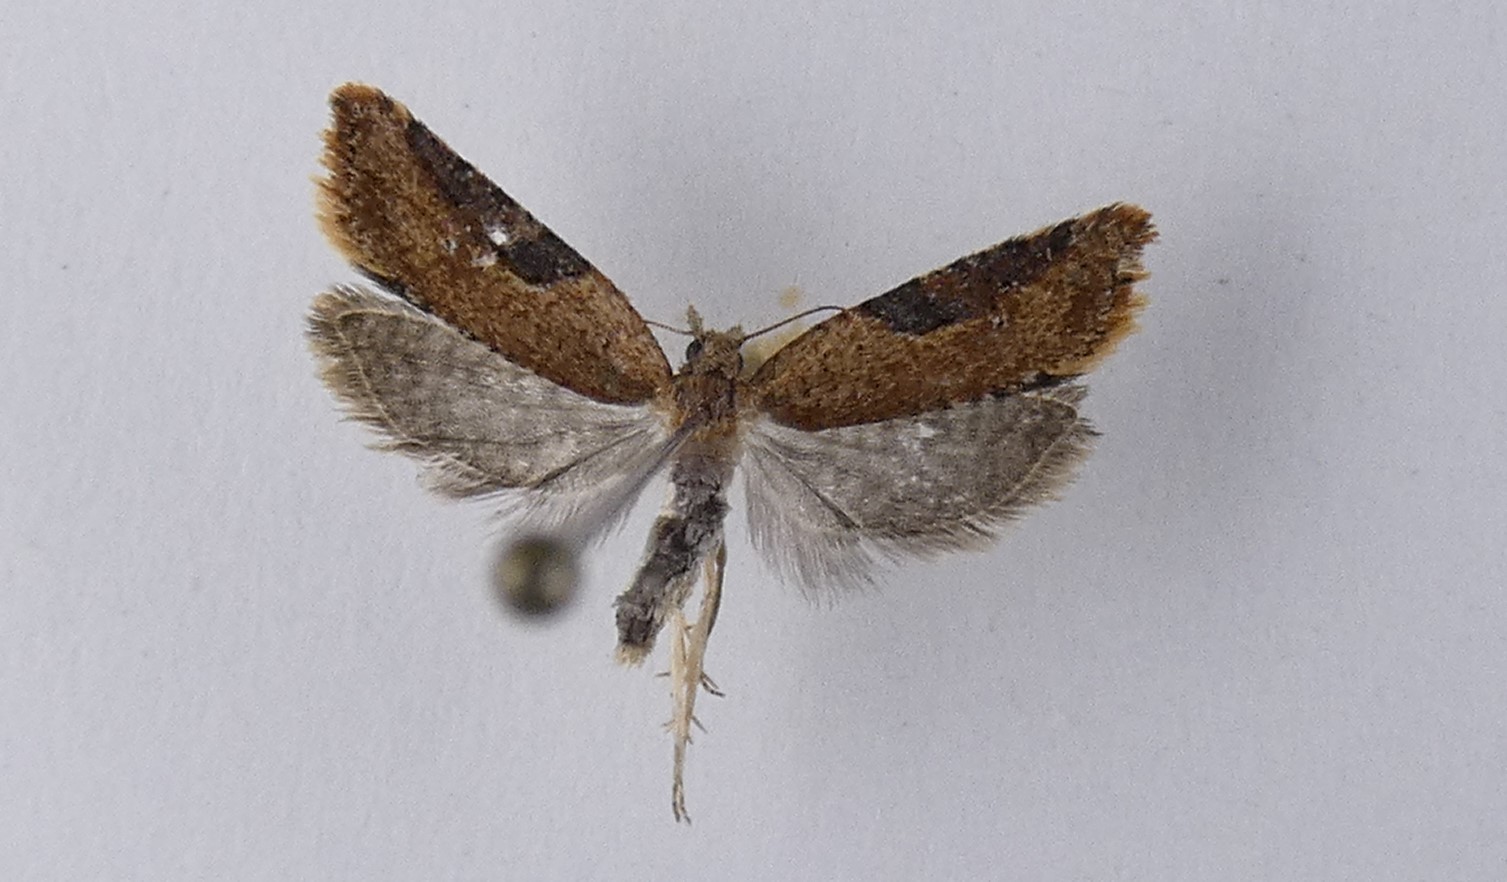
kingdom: Animalia
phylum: Arthropoda
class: Insecta
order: Lepidoptera
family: Tortricidae
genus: Capua
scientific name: Capua semiferana
